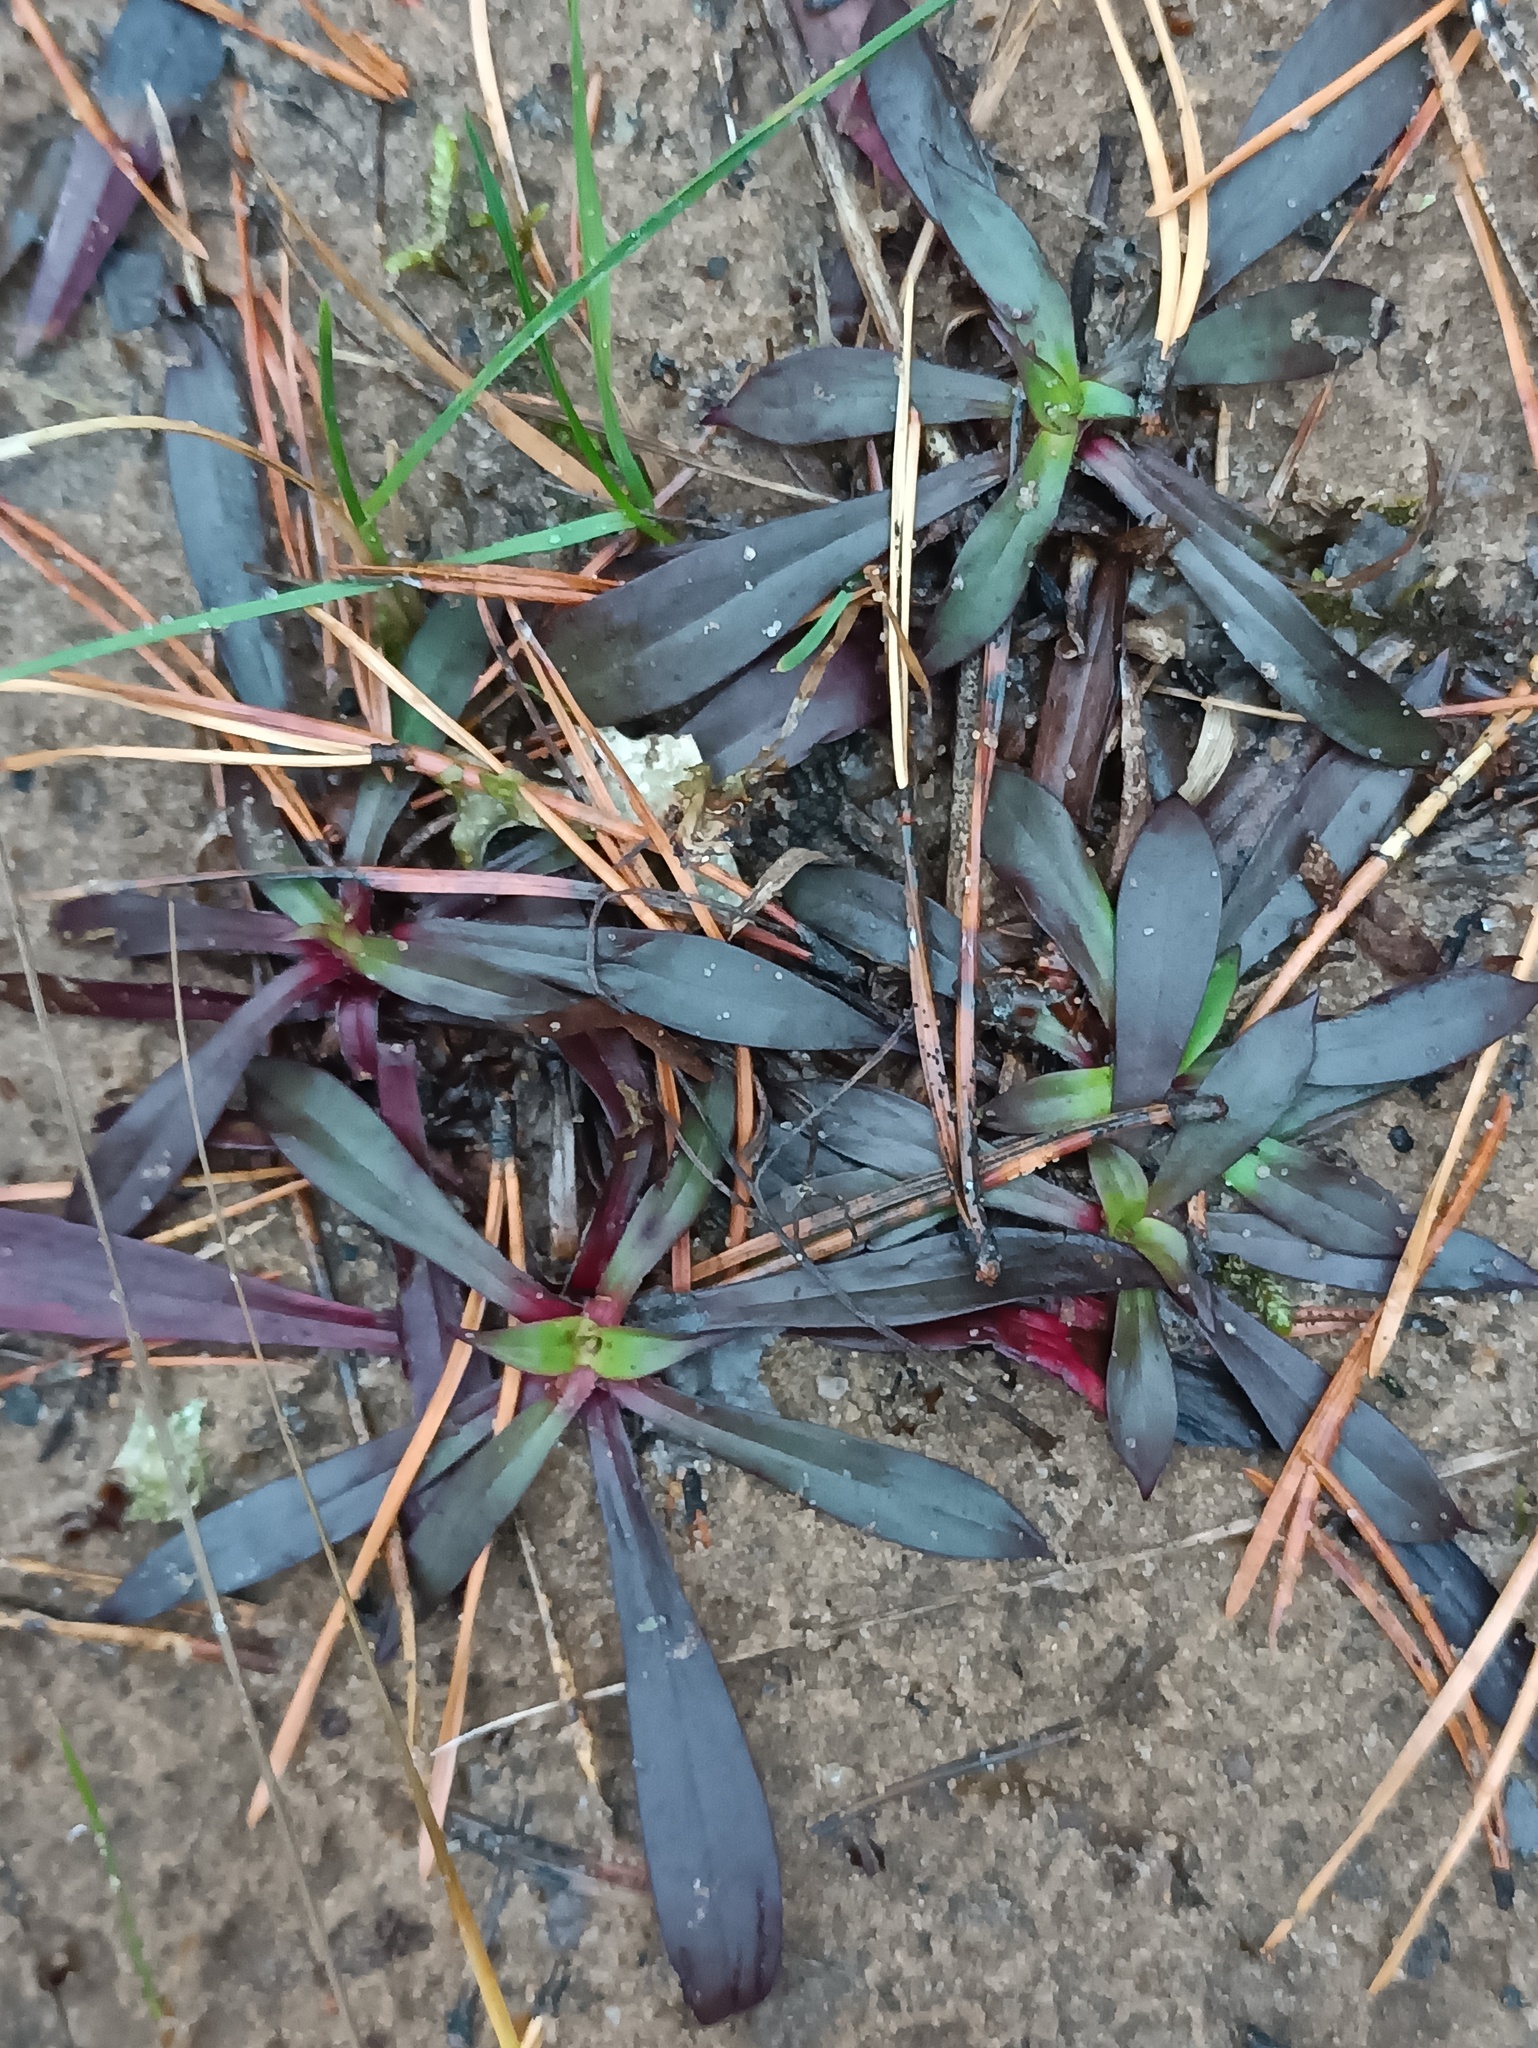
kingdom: Plantae
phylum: Tracheophyta
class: Magnoliopsida
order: Caryophyllales
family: Caryophyllaceae
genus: Viscaria
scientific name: Viscaria vulgaris
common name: Clammy campion
